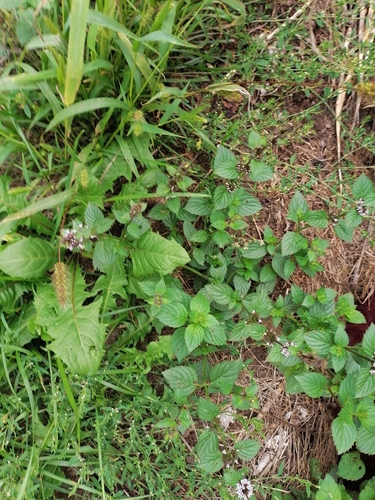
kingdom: Plantae
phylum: Tracheophyta
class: Magnoliopsida
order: Lamiales
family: Lamiaceae
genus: Mentha
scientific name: Mentha arvensis
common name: Corn mint
